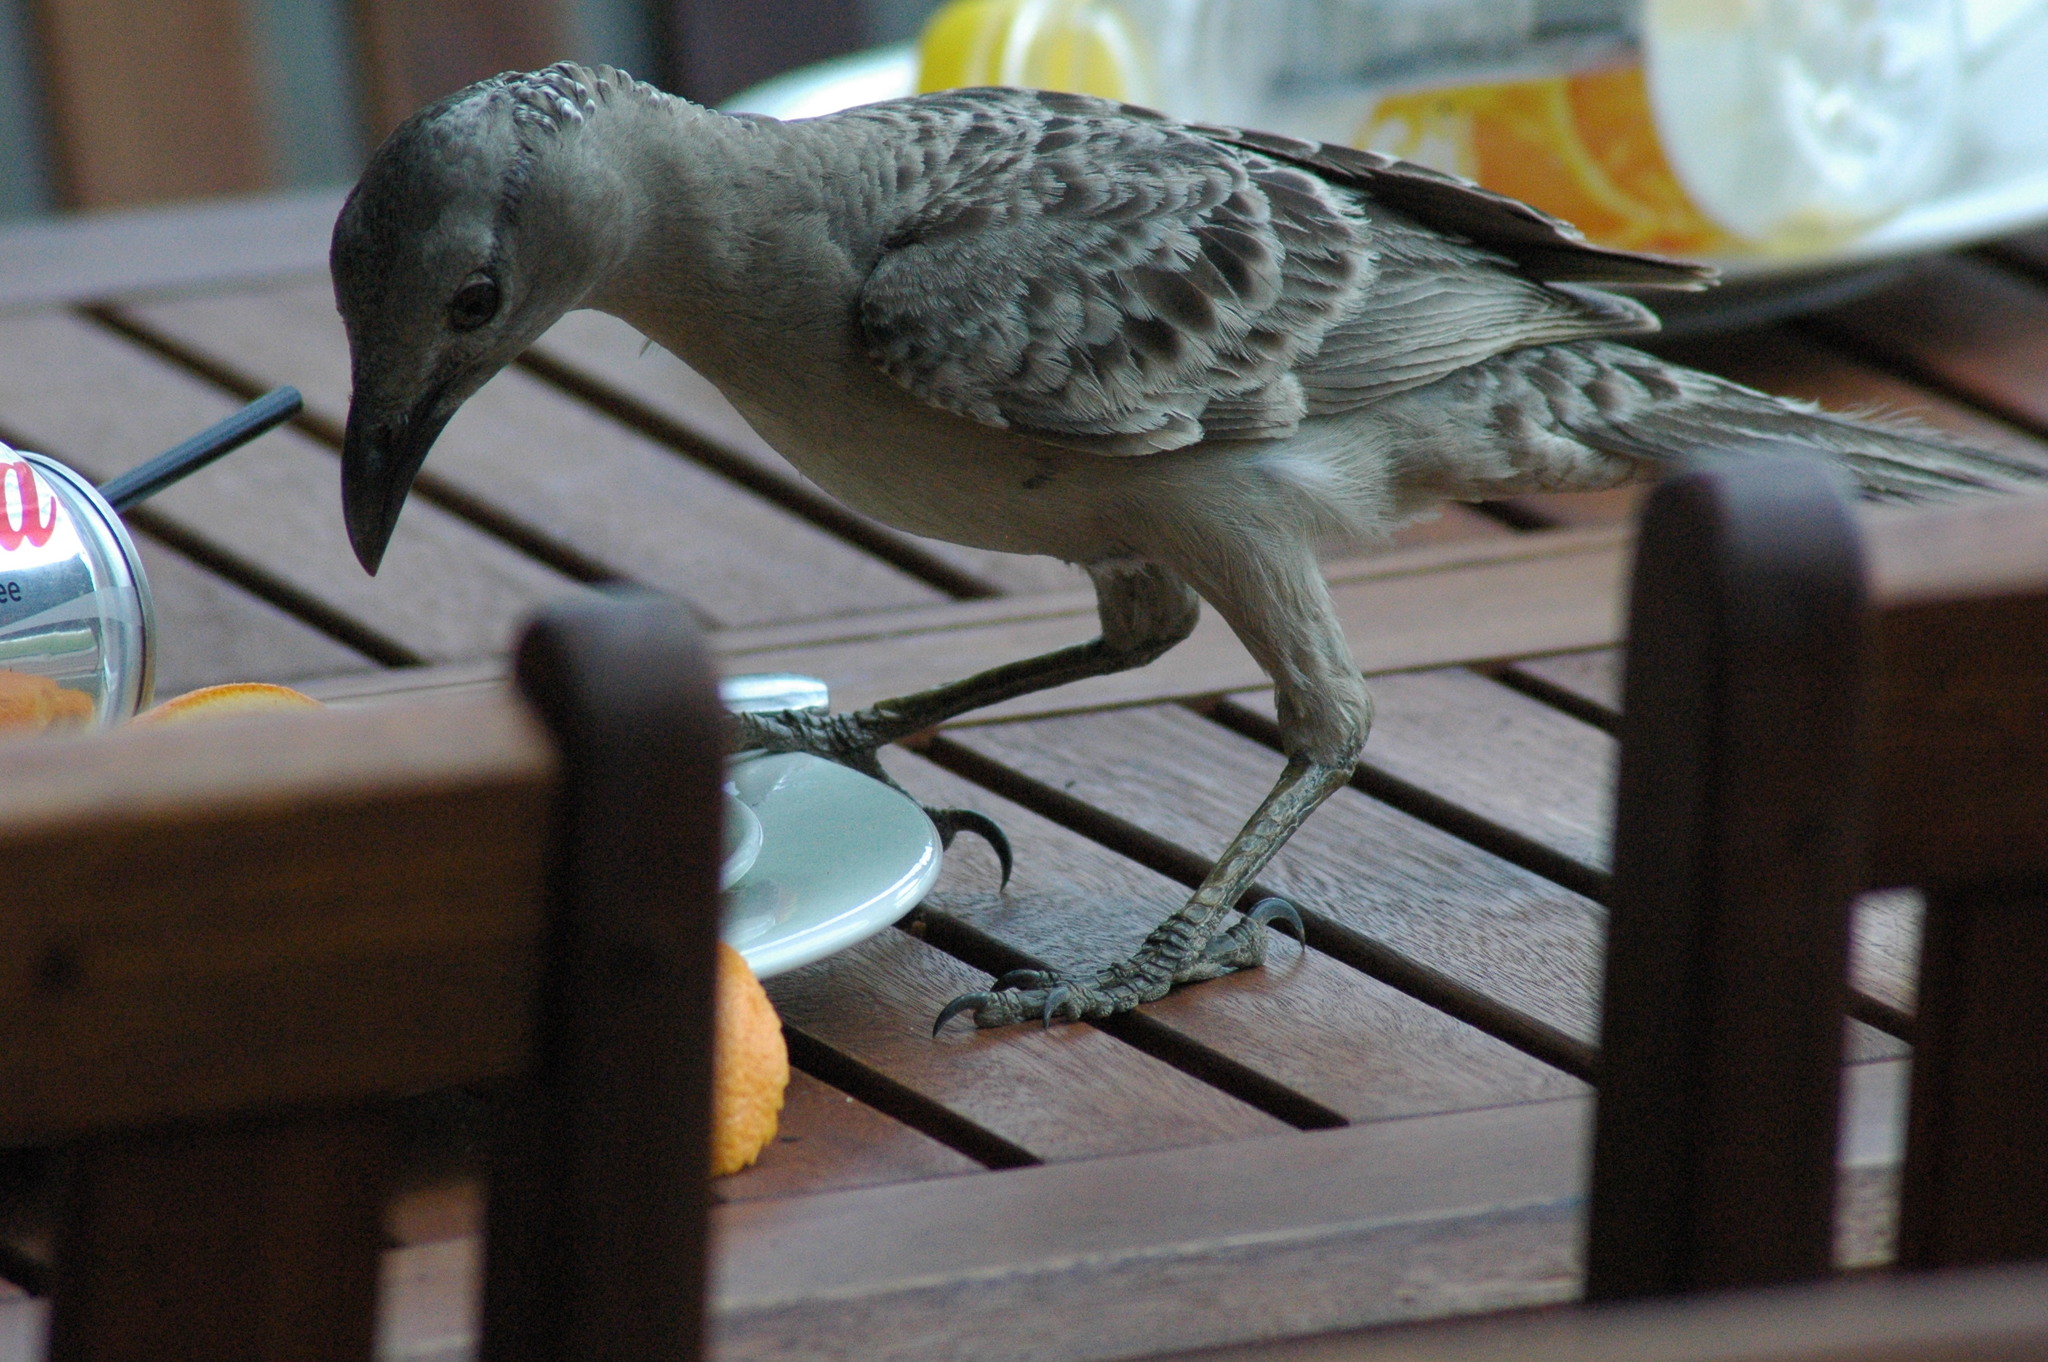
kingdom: Animalia
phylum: Chordata
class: Aves
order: Passeriformes
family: Ptilonorhynchidae
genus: Chlamydera
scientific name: Chlamydera nuchalis
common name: Great bowerbird
